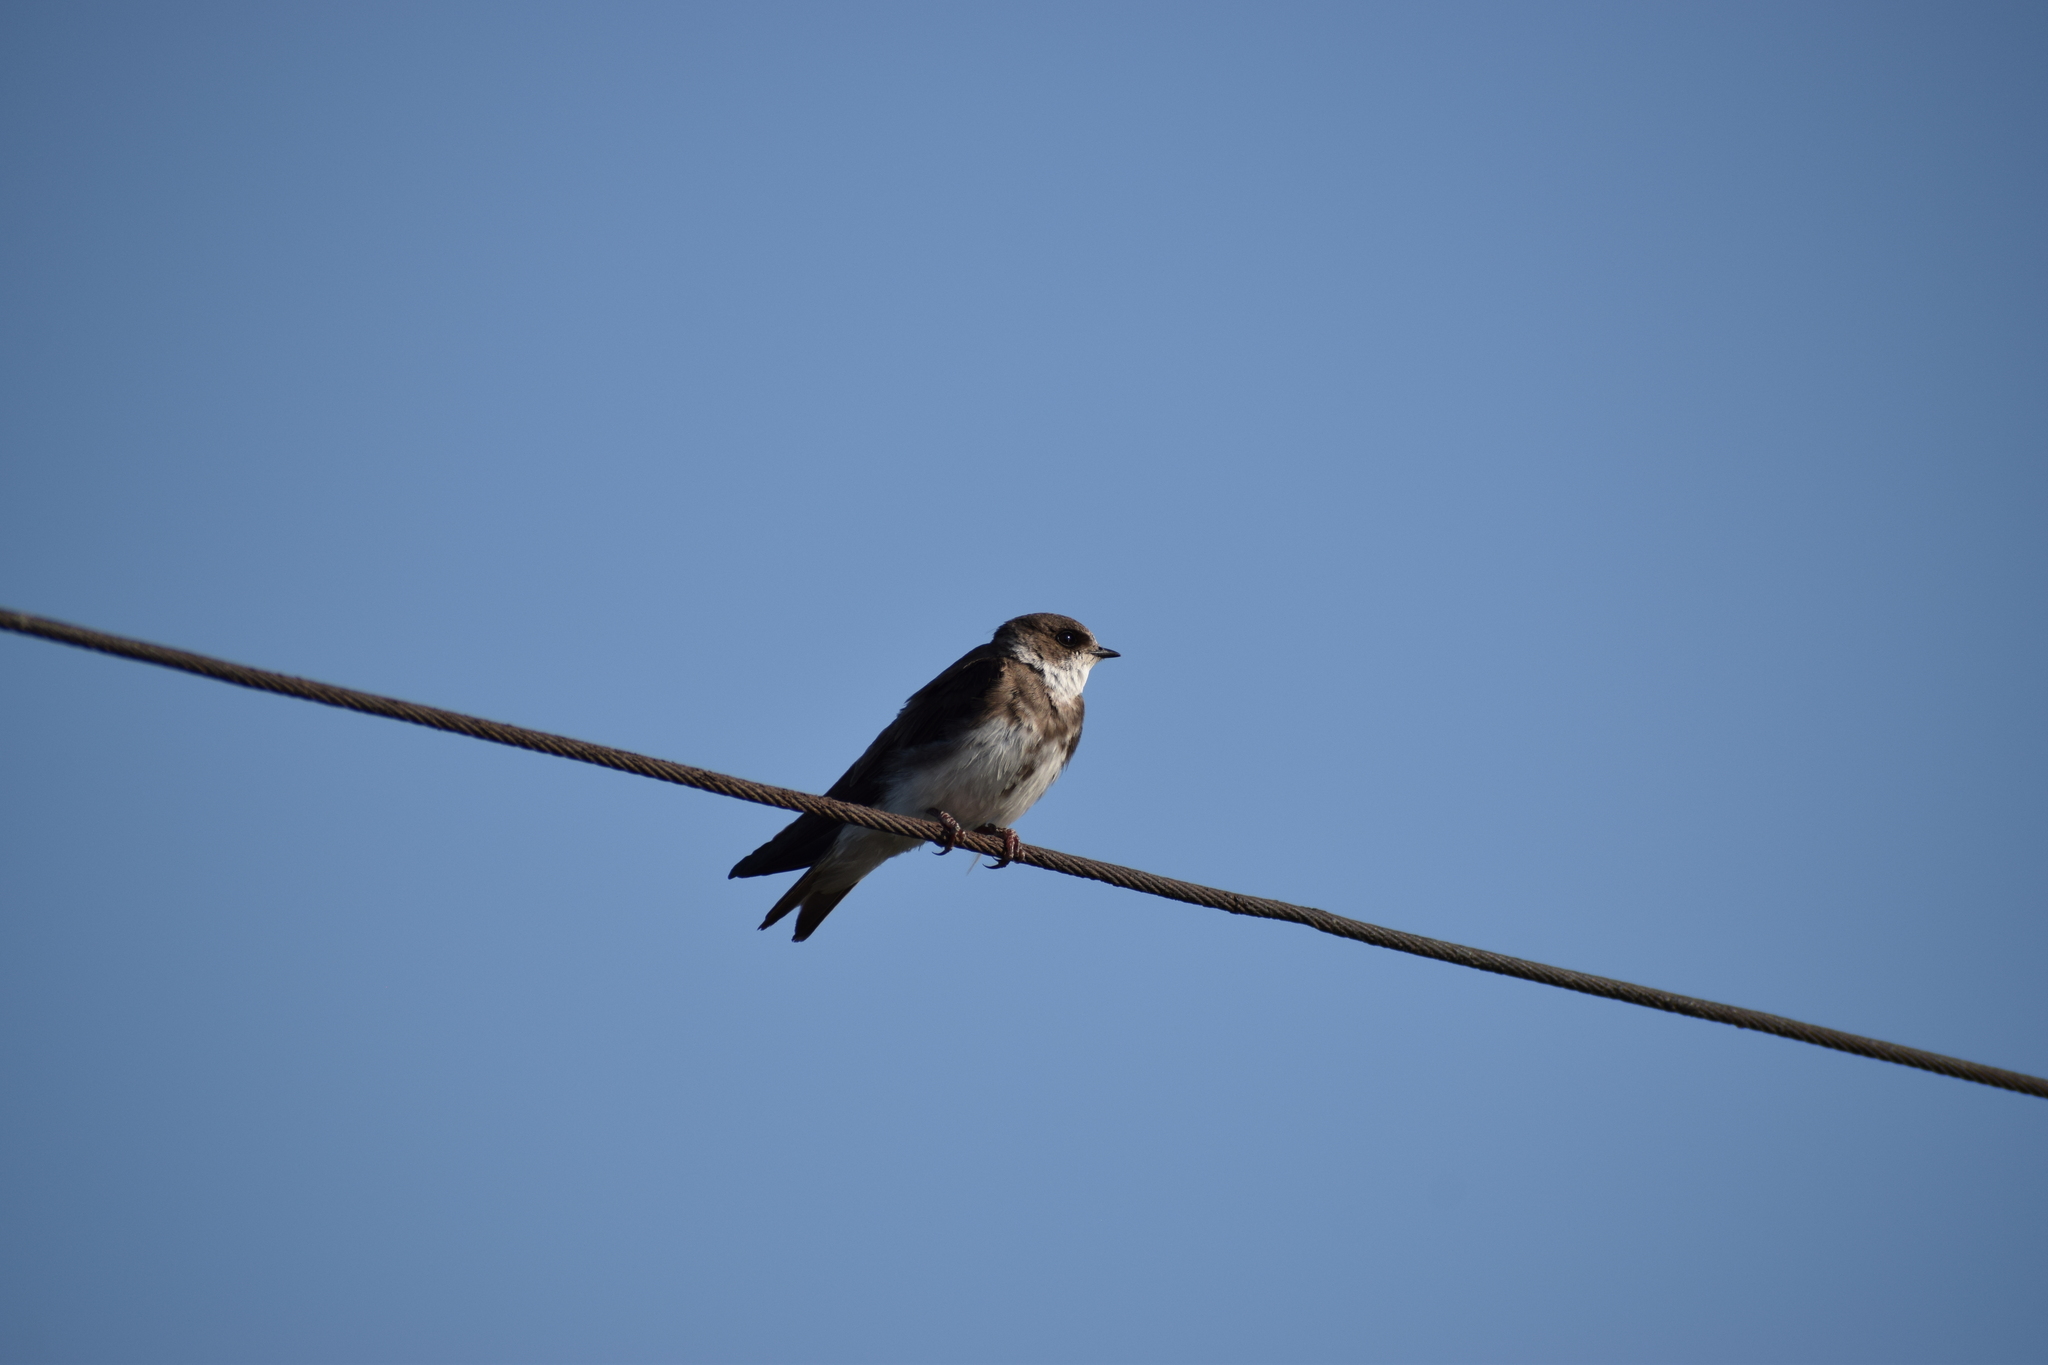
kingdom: Animalia
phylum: Chordata
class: Aves
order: Passeriformes
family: Hirundinidae
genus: Riparia
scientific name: Riparia riparia
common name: Sand martin
